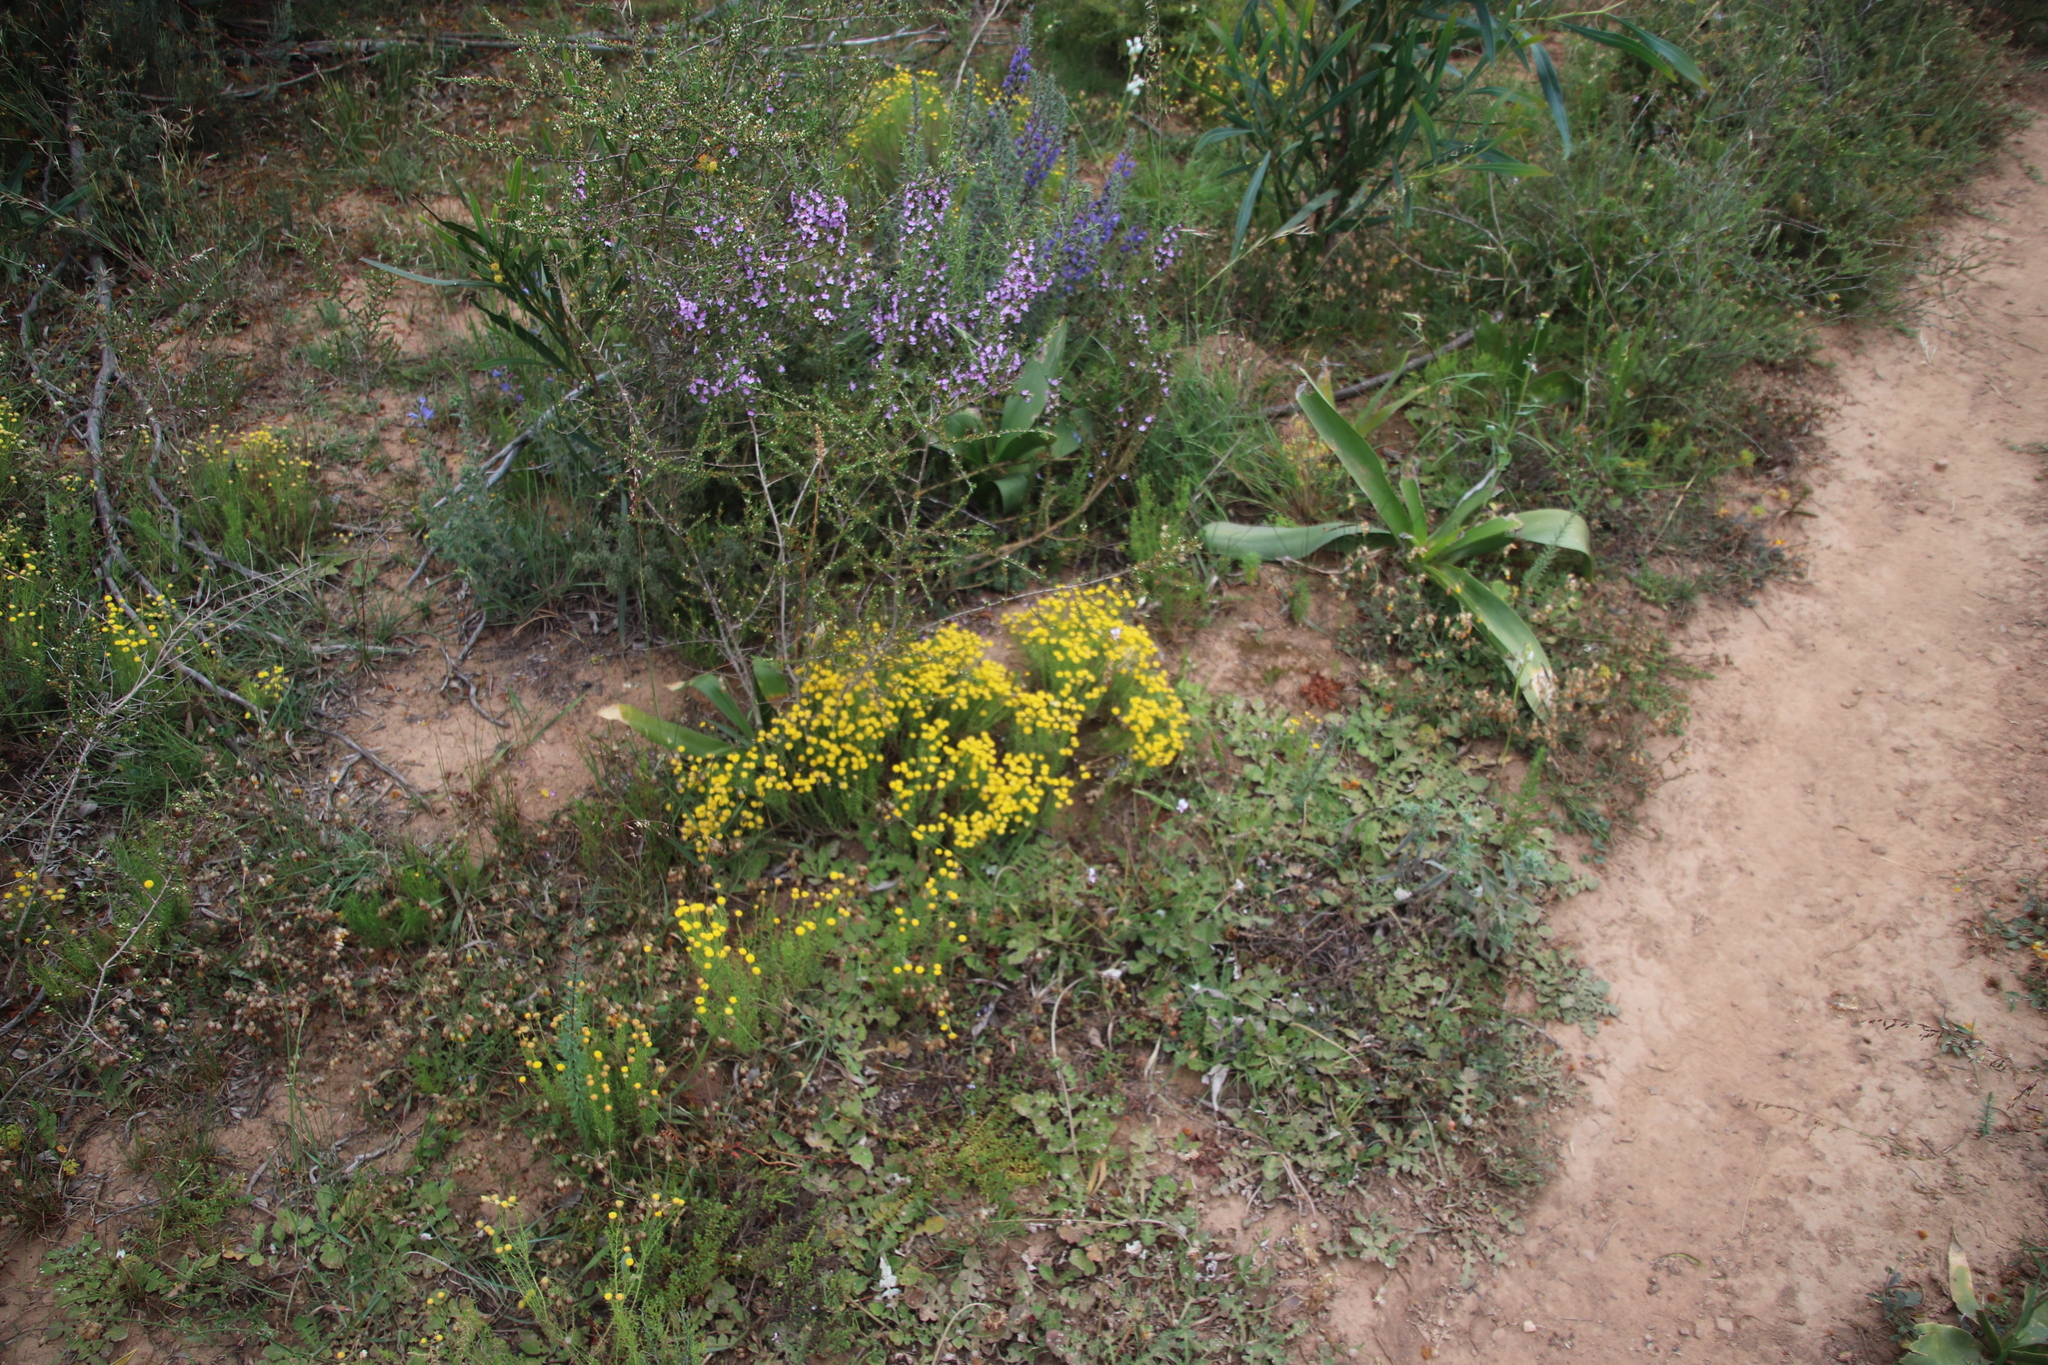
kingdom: Plantae
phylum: Tracheophyta
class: Magnoliopsida
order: Asterales
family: Asteraceae
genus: Chrysocoma
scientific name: Chrysocoma ciliata
